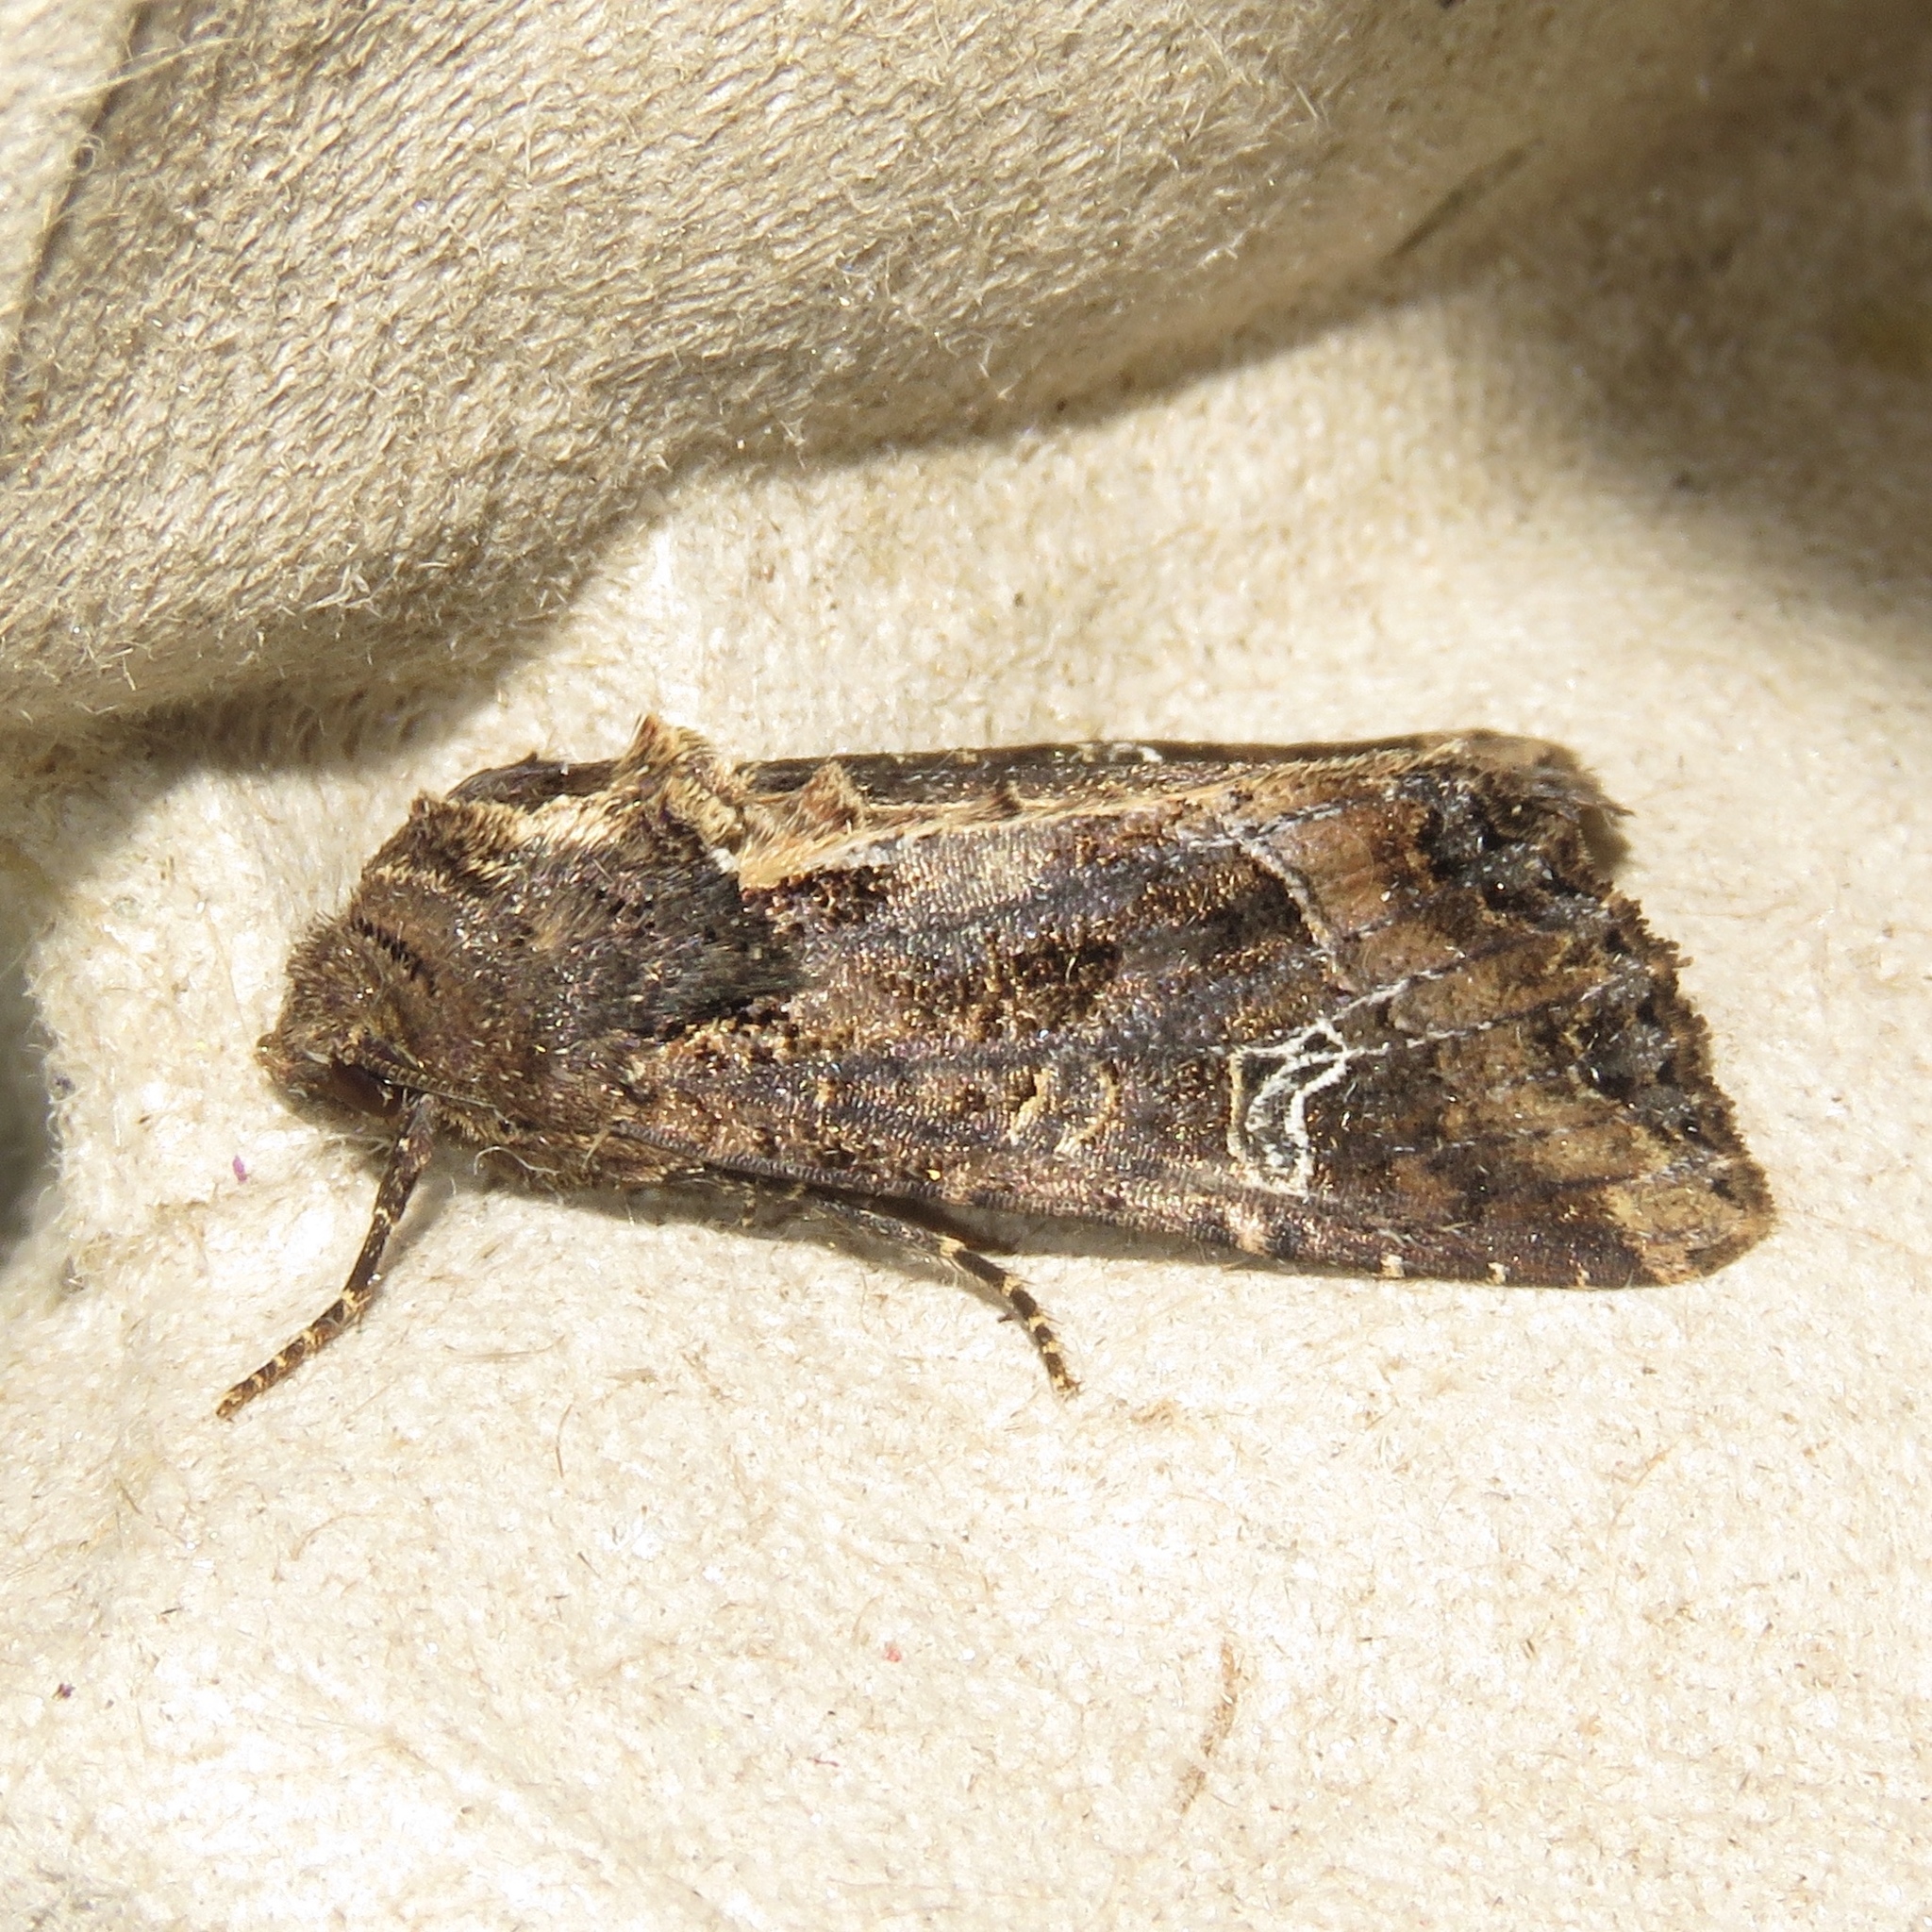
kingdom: Animalia
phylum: Arthropoda
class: Insecta
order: Lepidoptera
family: Noctuidae
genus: Helotropha
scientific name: Helotropha reniformis
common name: Kidney-spotted rustic moth
